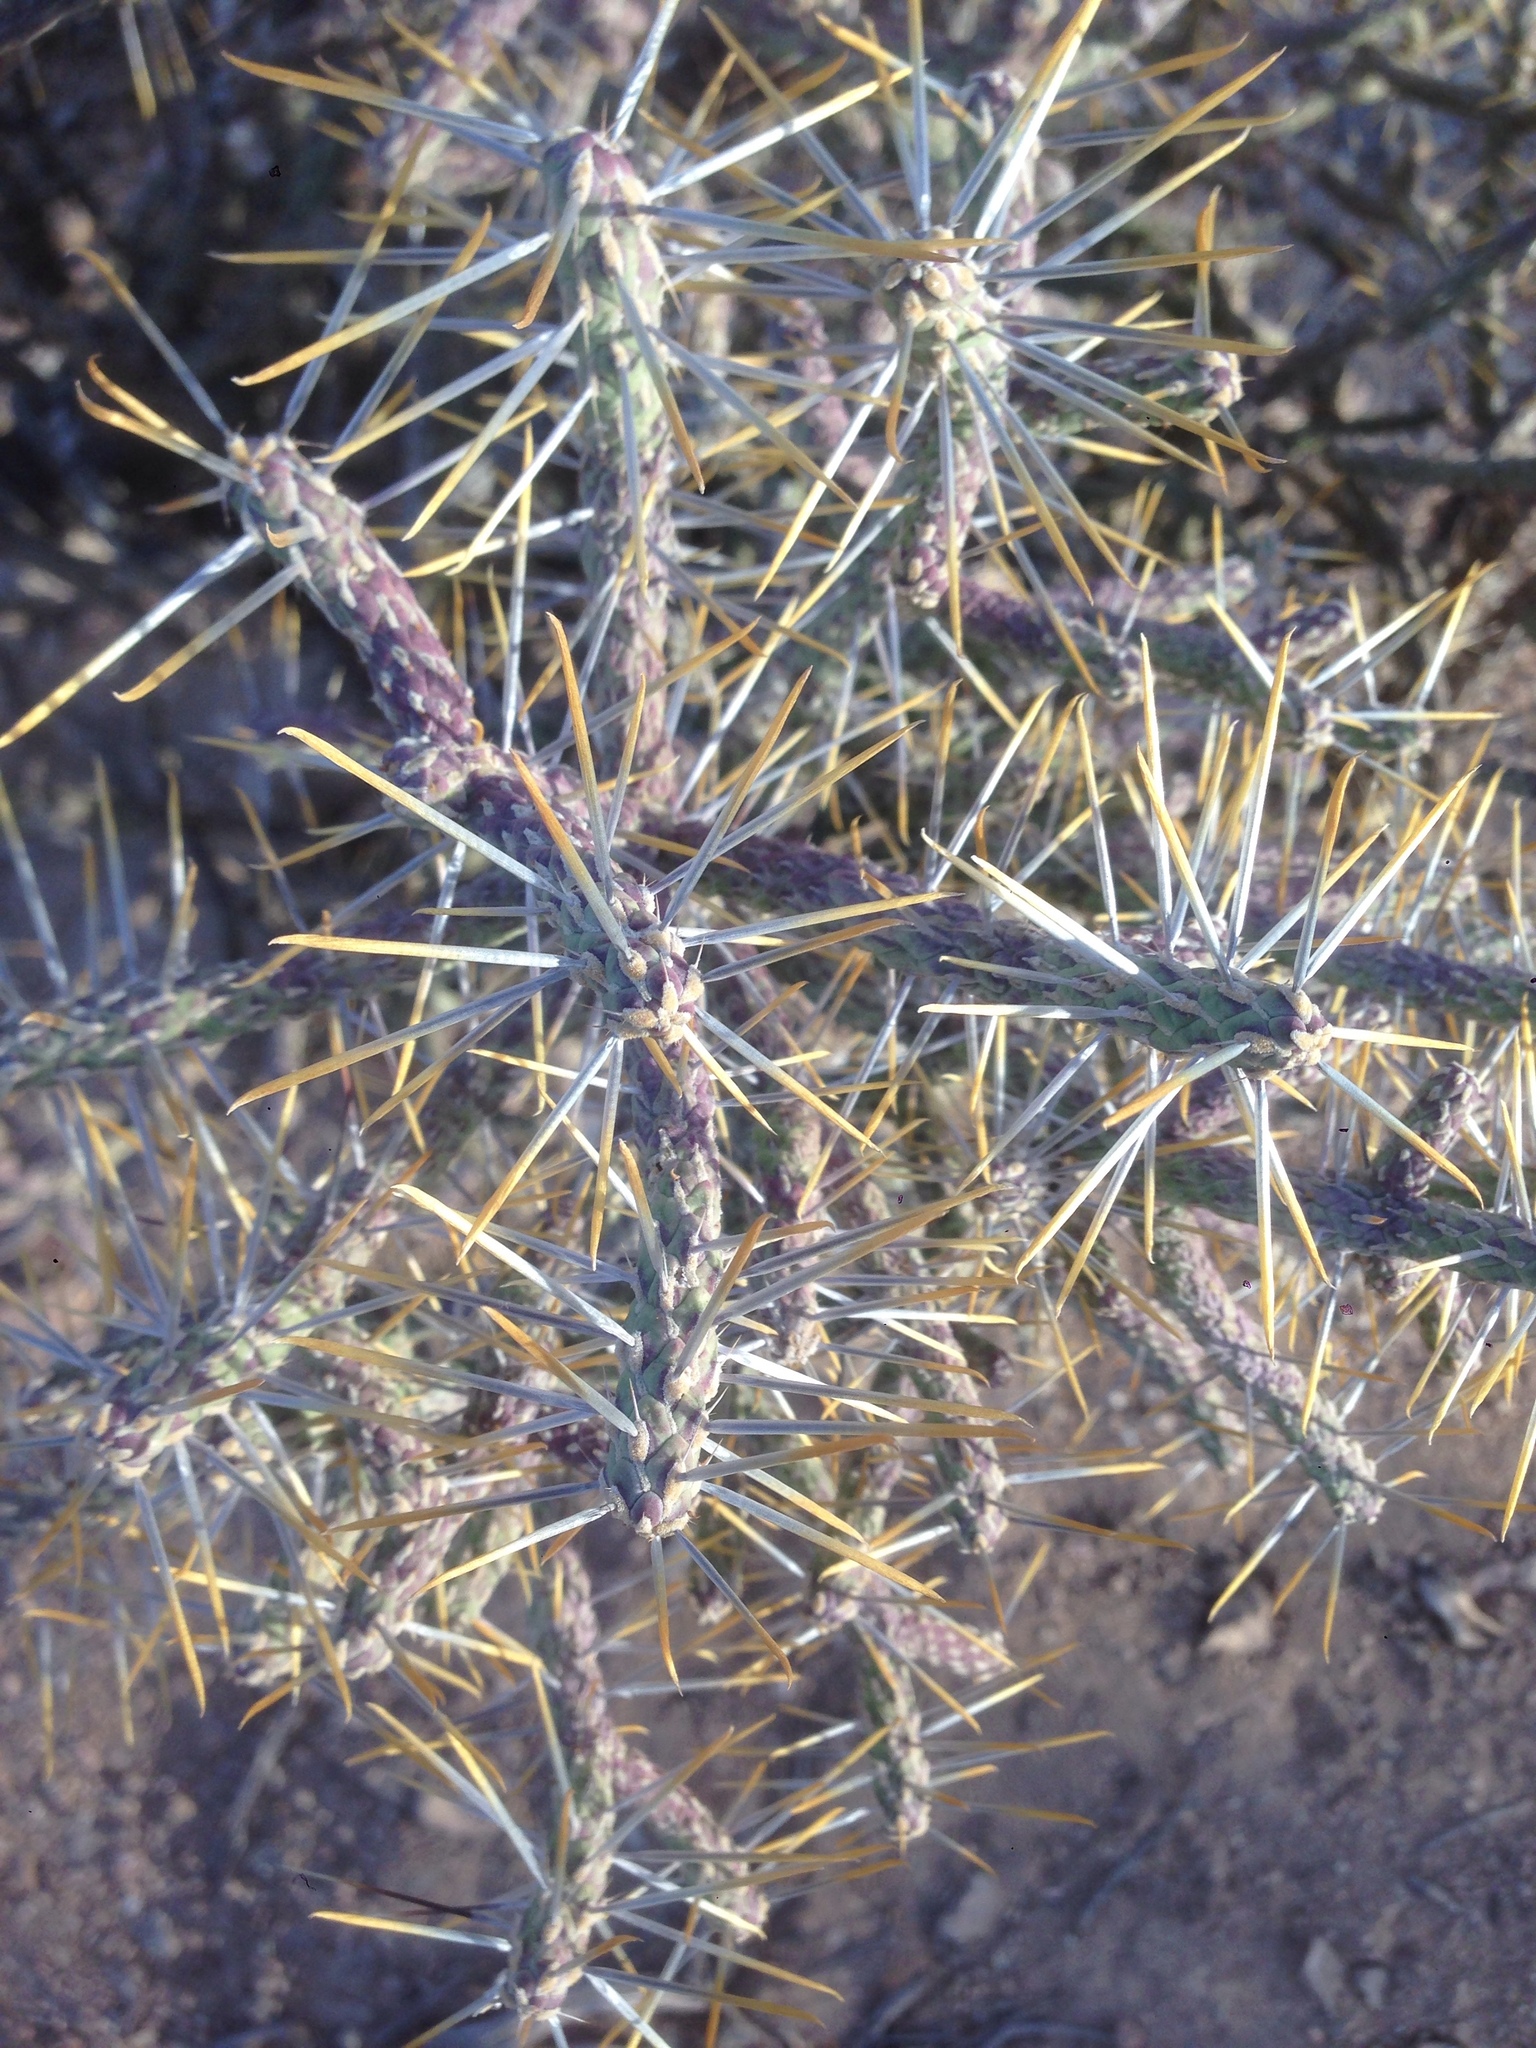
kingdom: Plantae
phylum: Tracheophyta
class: Magnoliopsida
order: Caryophyllales
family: Cactaceae
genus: Cylindropuntia
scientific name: Cylindropuntia ramosissima
